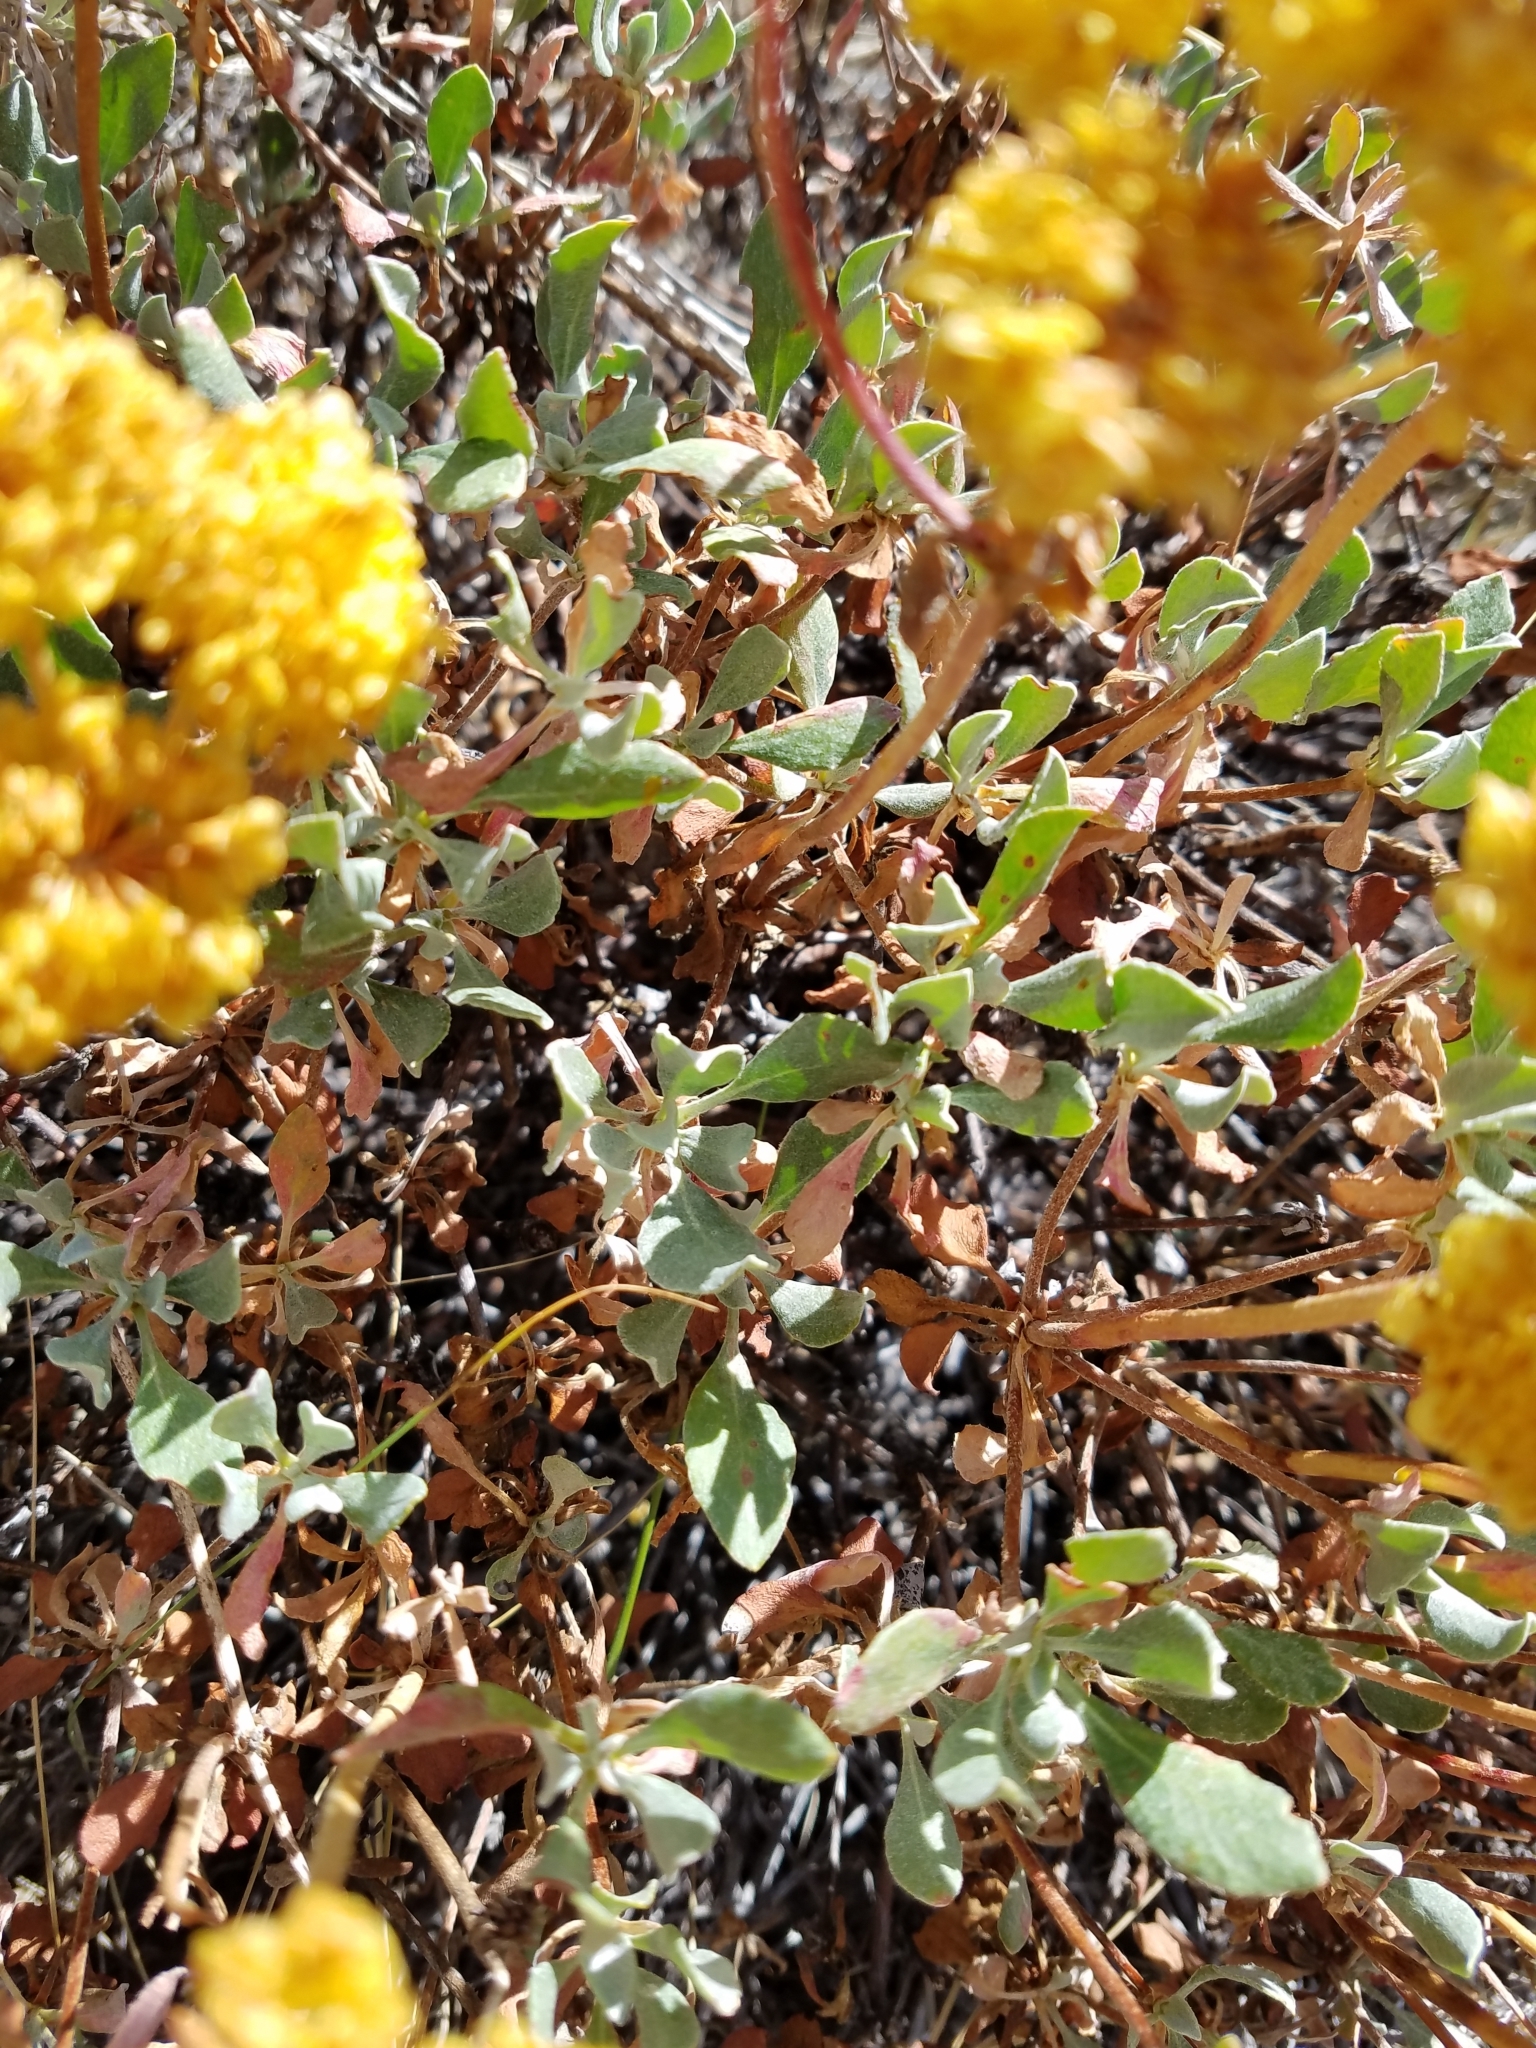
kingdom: Plantae
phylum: Tracheophyta
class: Magnoliopsida
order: Caryophyllales
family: Polygonaceae
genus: Eriogonum
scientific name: Eriogonum umbellatum
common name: Sulfur-buckwheat
